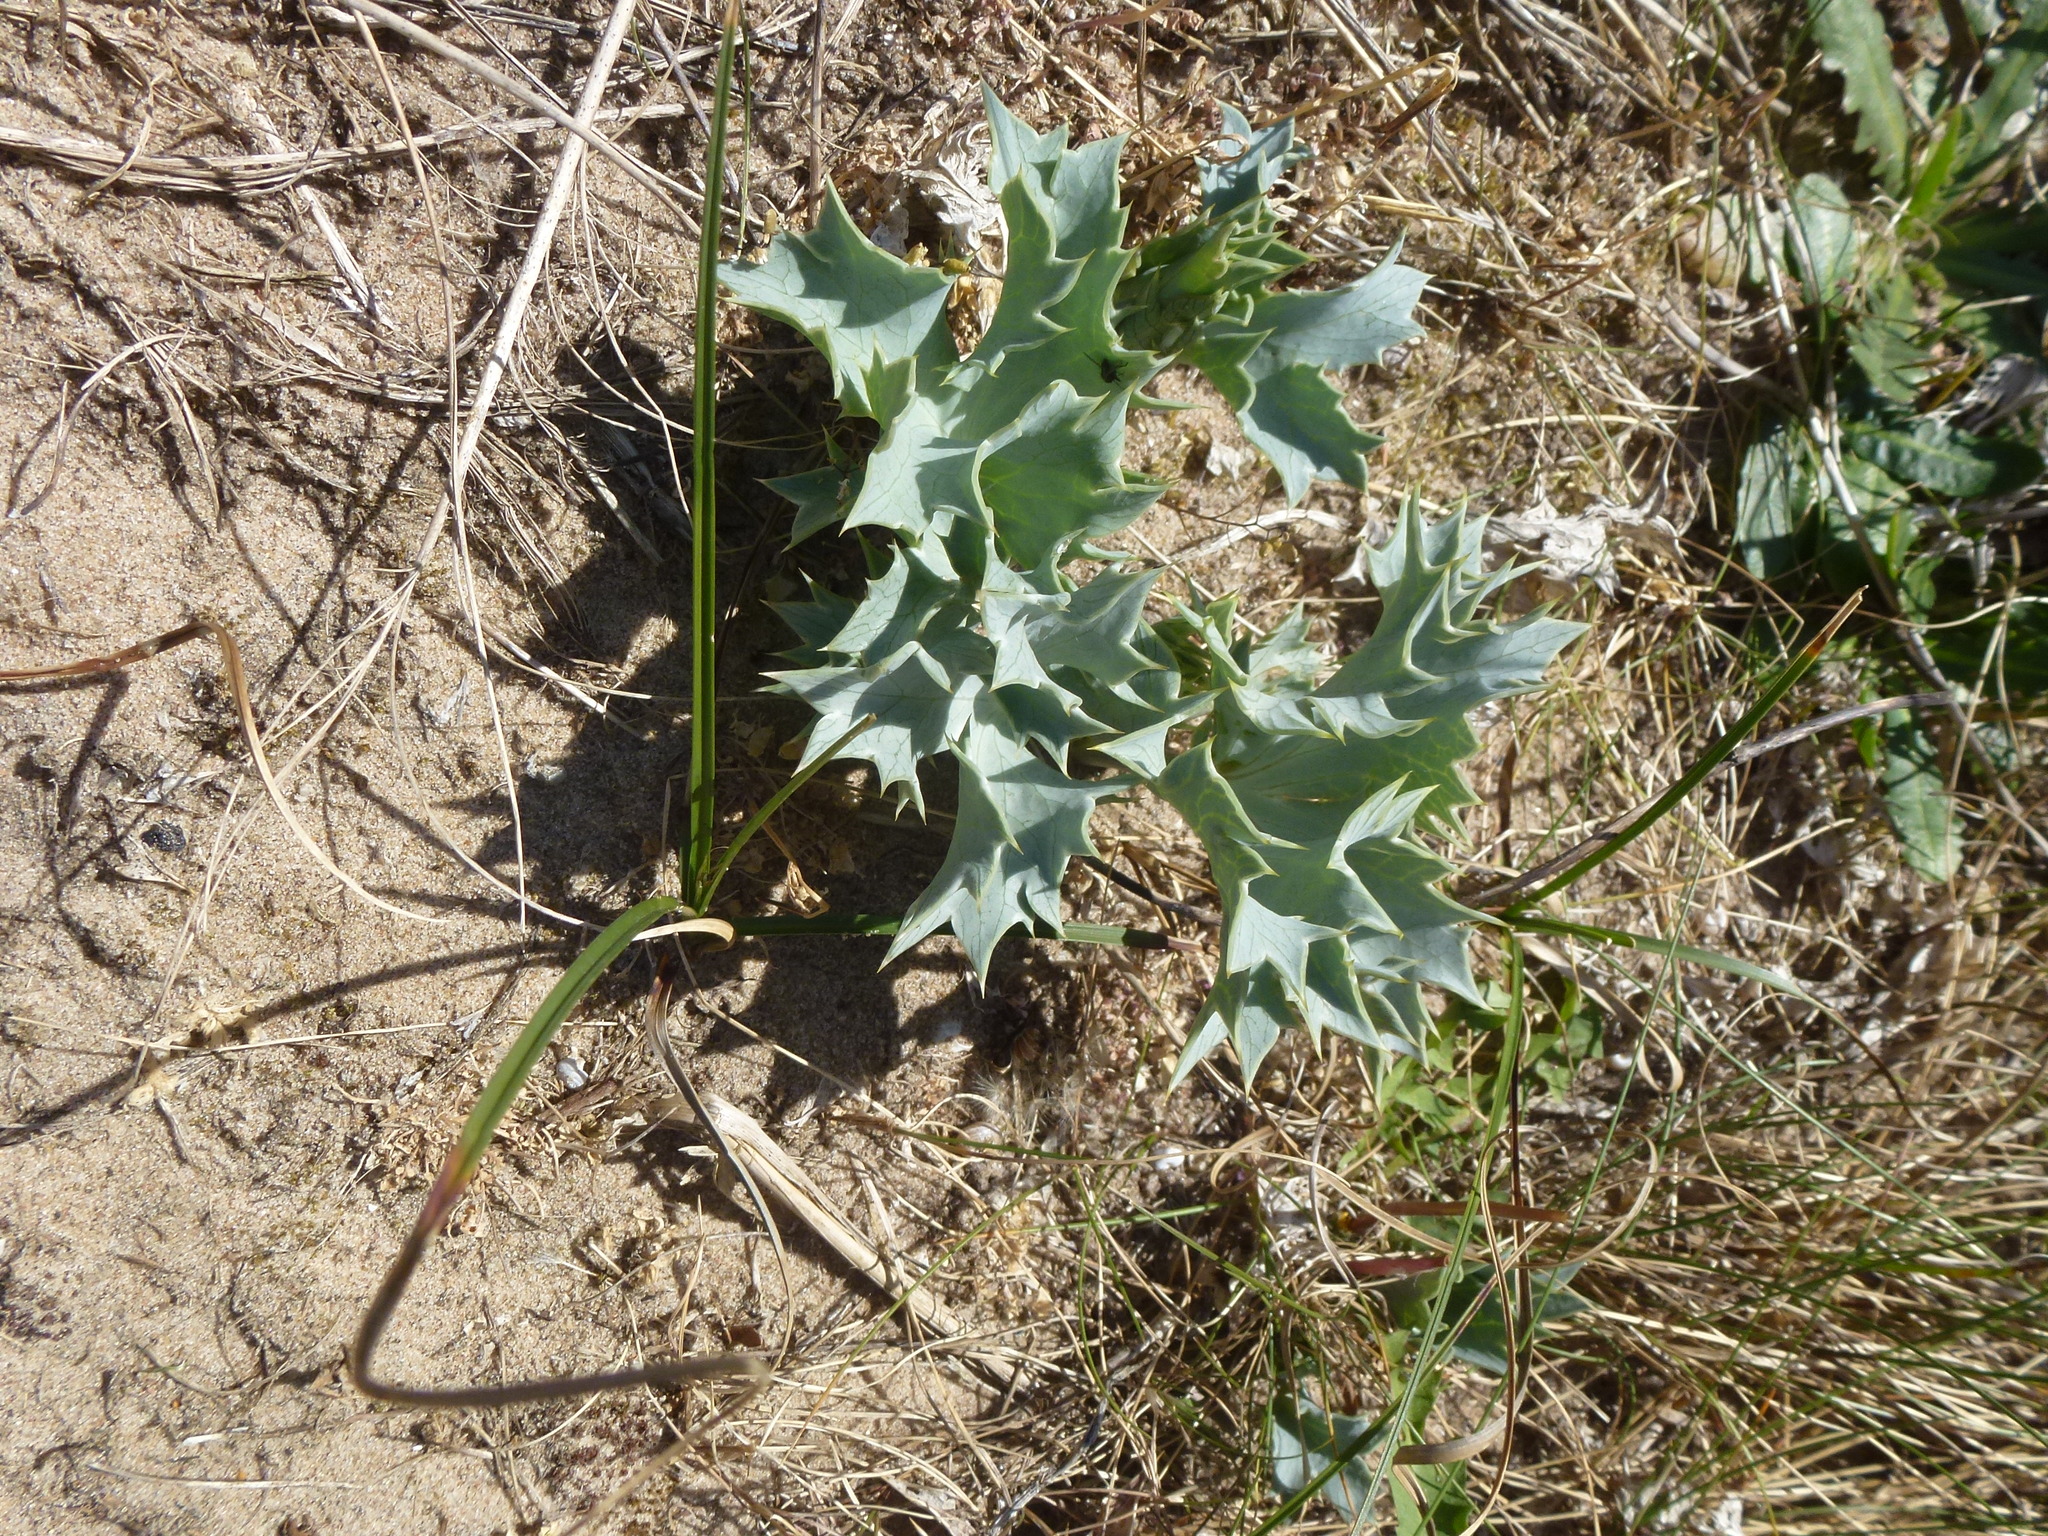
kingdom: Plantae
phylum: Tracheophyta
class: Magnoliopsida
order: Apiales
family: Apiaceae
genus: Eryngium
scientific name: Eryngium maritimum
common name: Sea-holly
